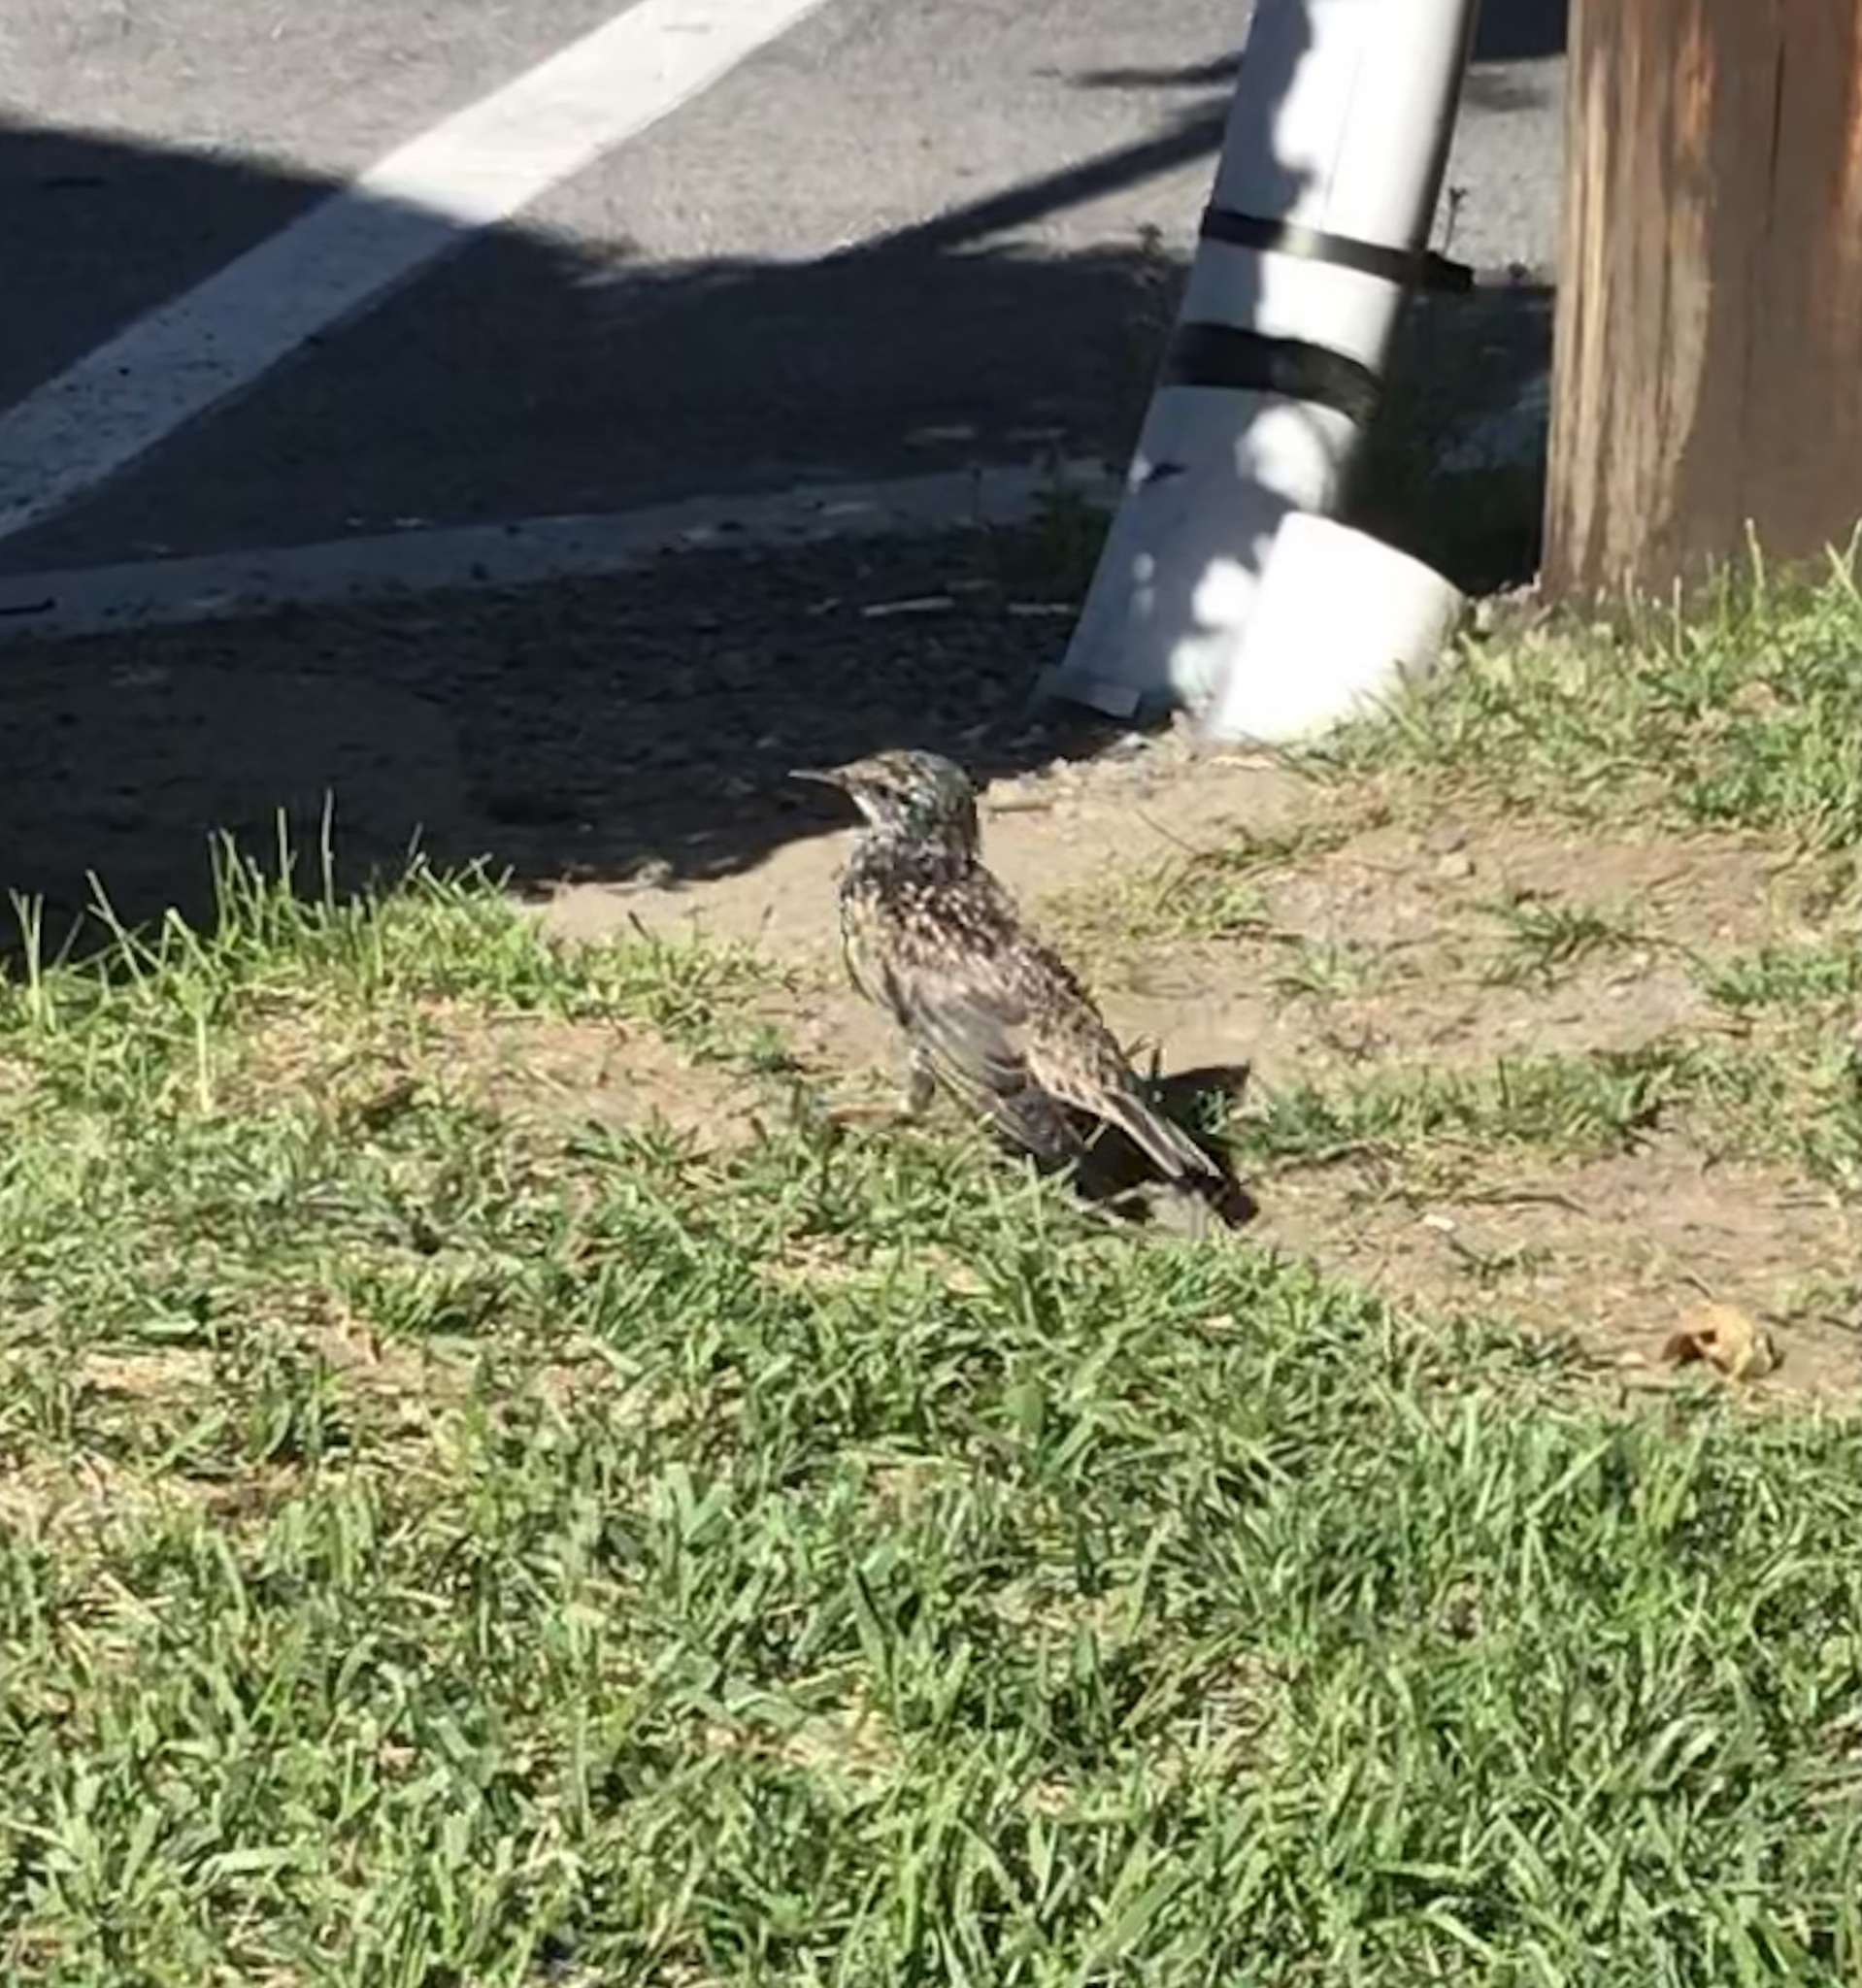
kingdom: Animalia
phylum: Chordata
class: Aves
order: Passeriformes
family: Sturnidae
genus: Sturnus
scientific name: Sturnus vulgaris
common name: Common starling
